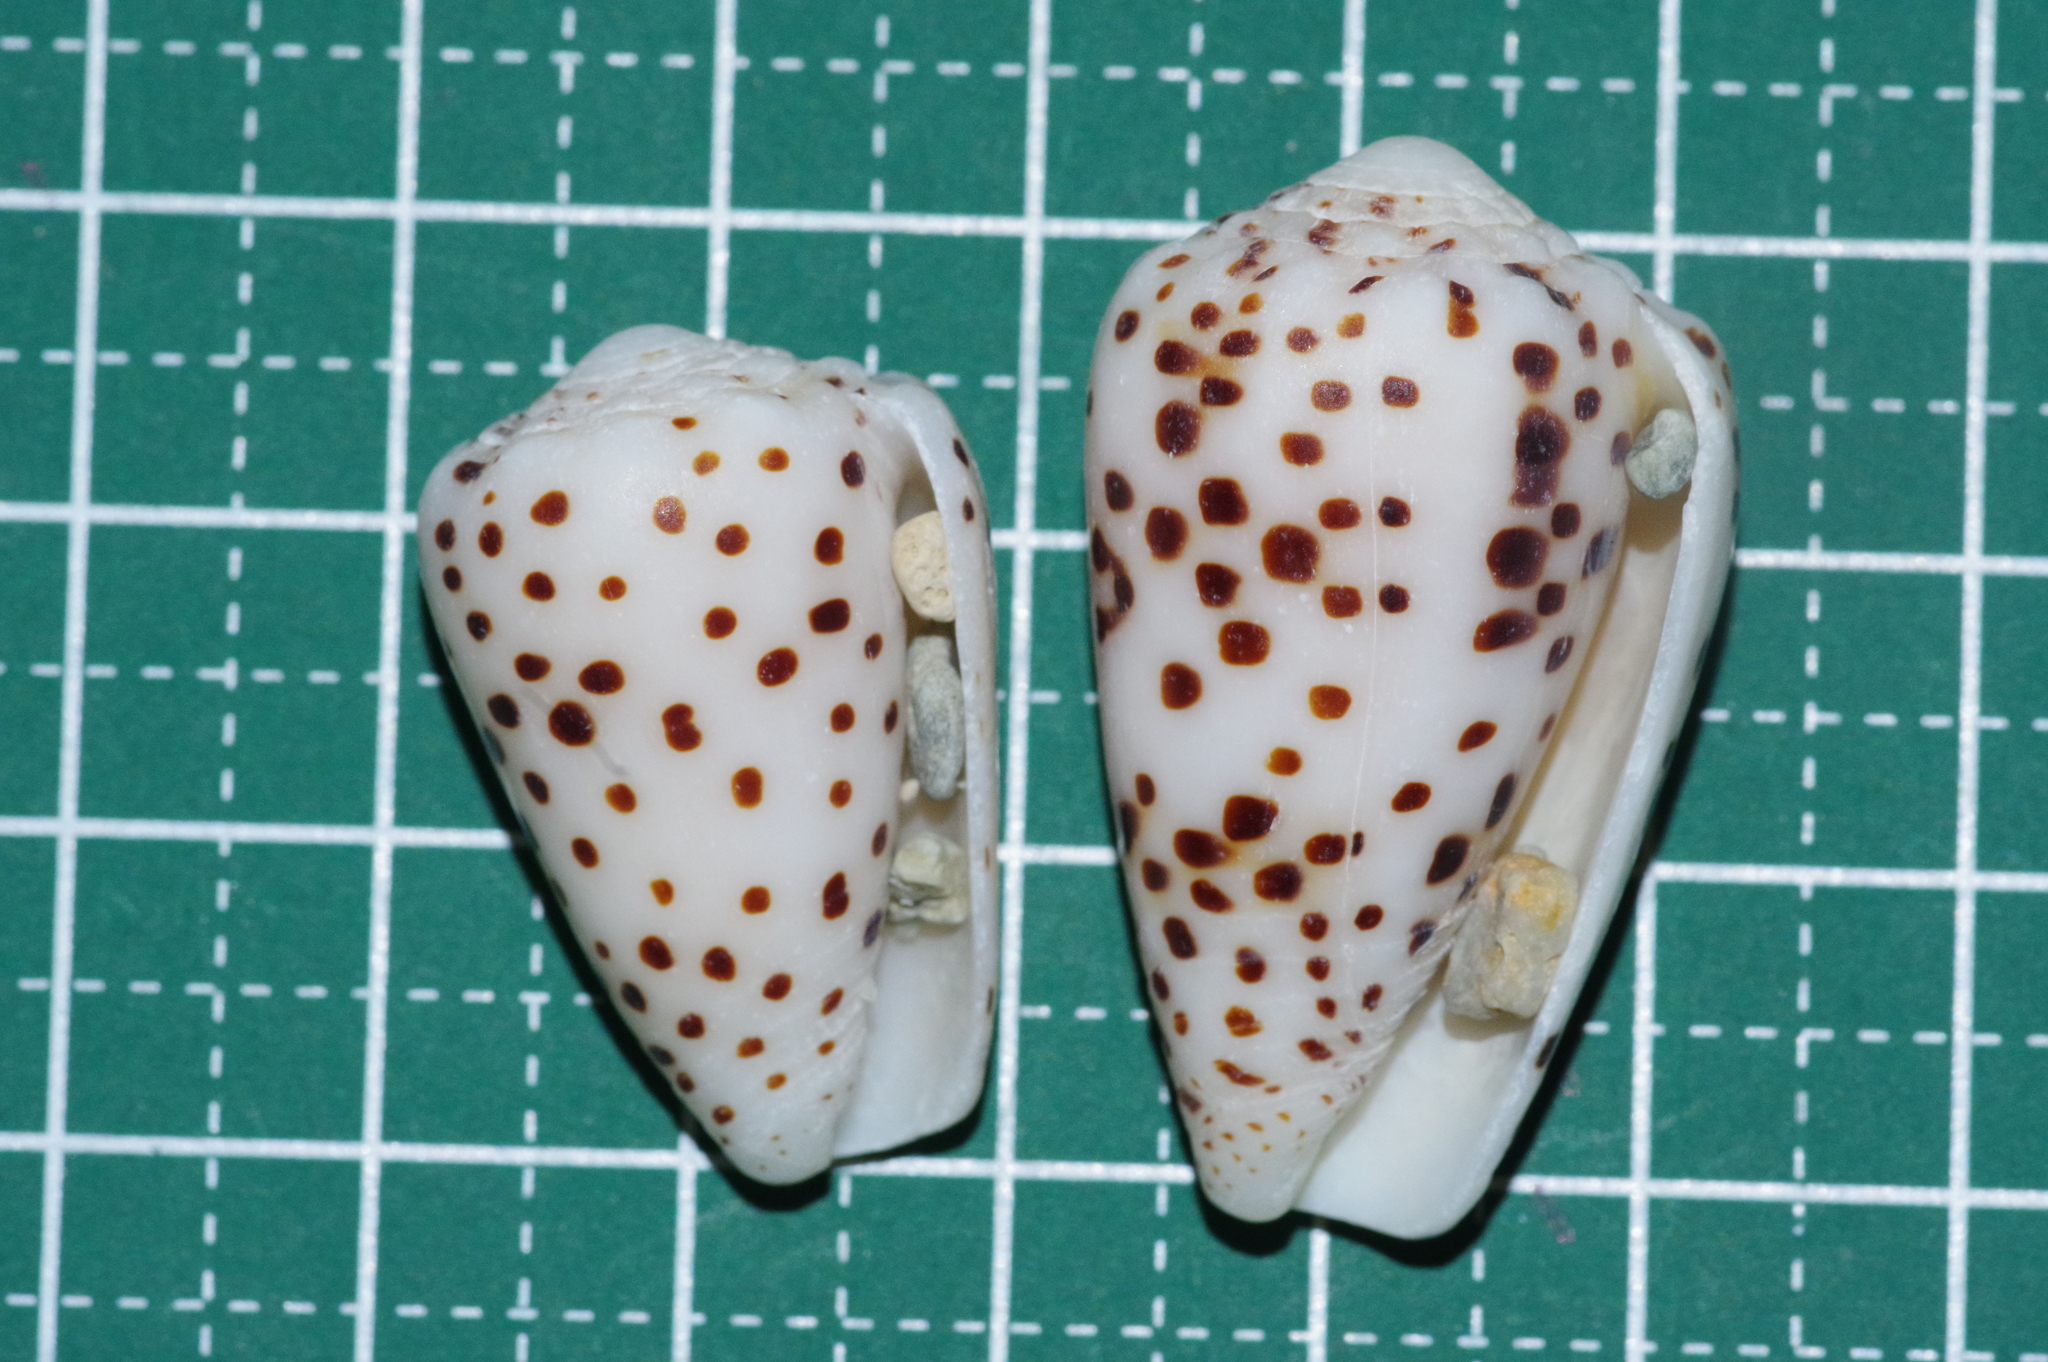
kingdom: Animalia
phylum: Mollusca
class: Gastropoda
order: Neogastropoda
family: Conidae
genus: Conus
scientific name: Conus pulicarius
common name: Flea-bite cone
